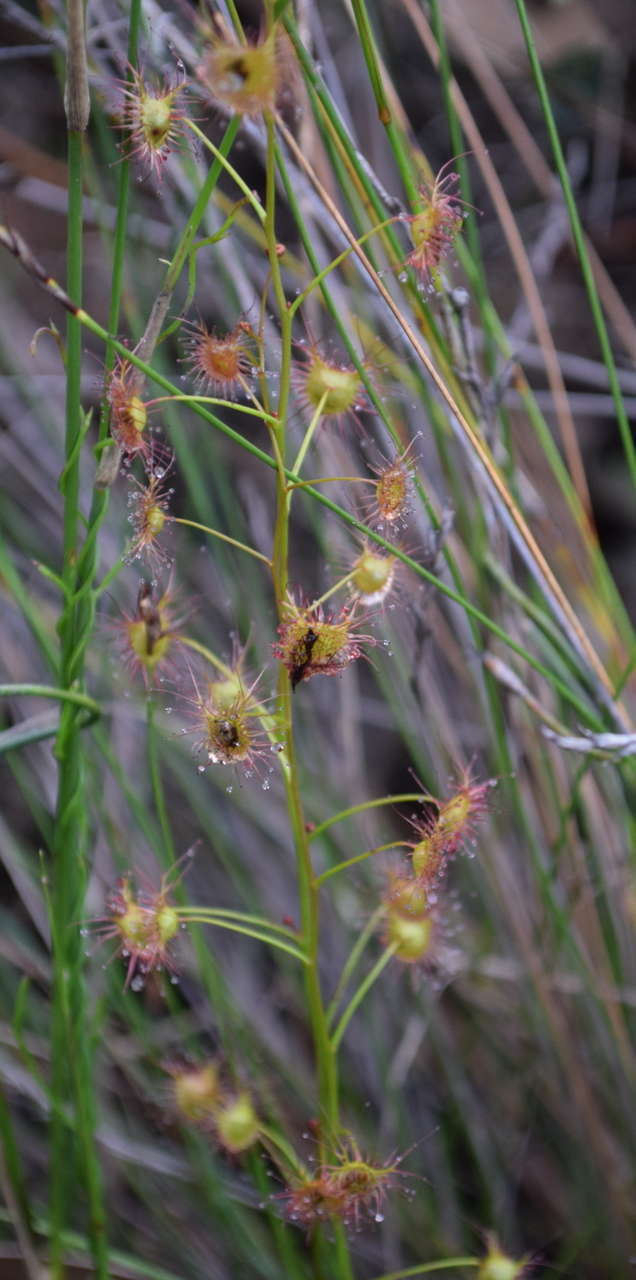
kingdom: Plantae
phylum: Tracheophyta
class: Magnoliopsida
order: Caryophyllales
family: Droseraceae
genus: Drosera
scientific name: Drosera peltata
